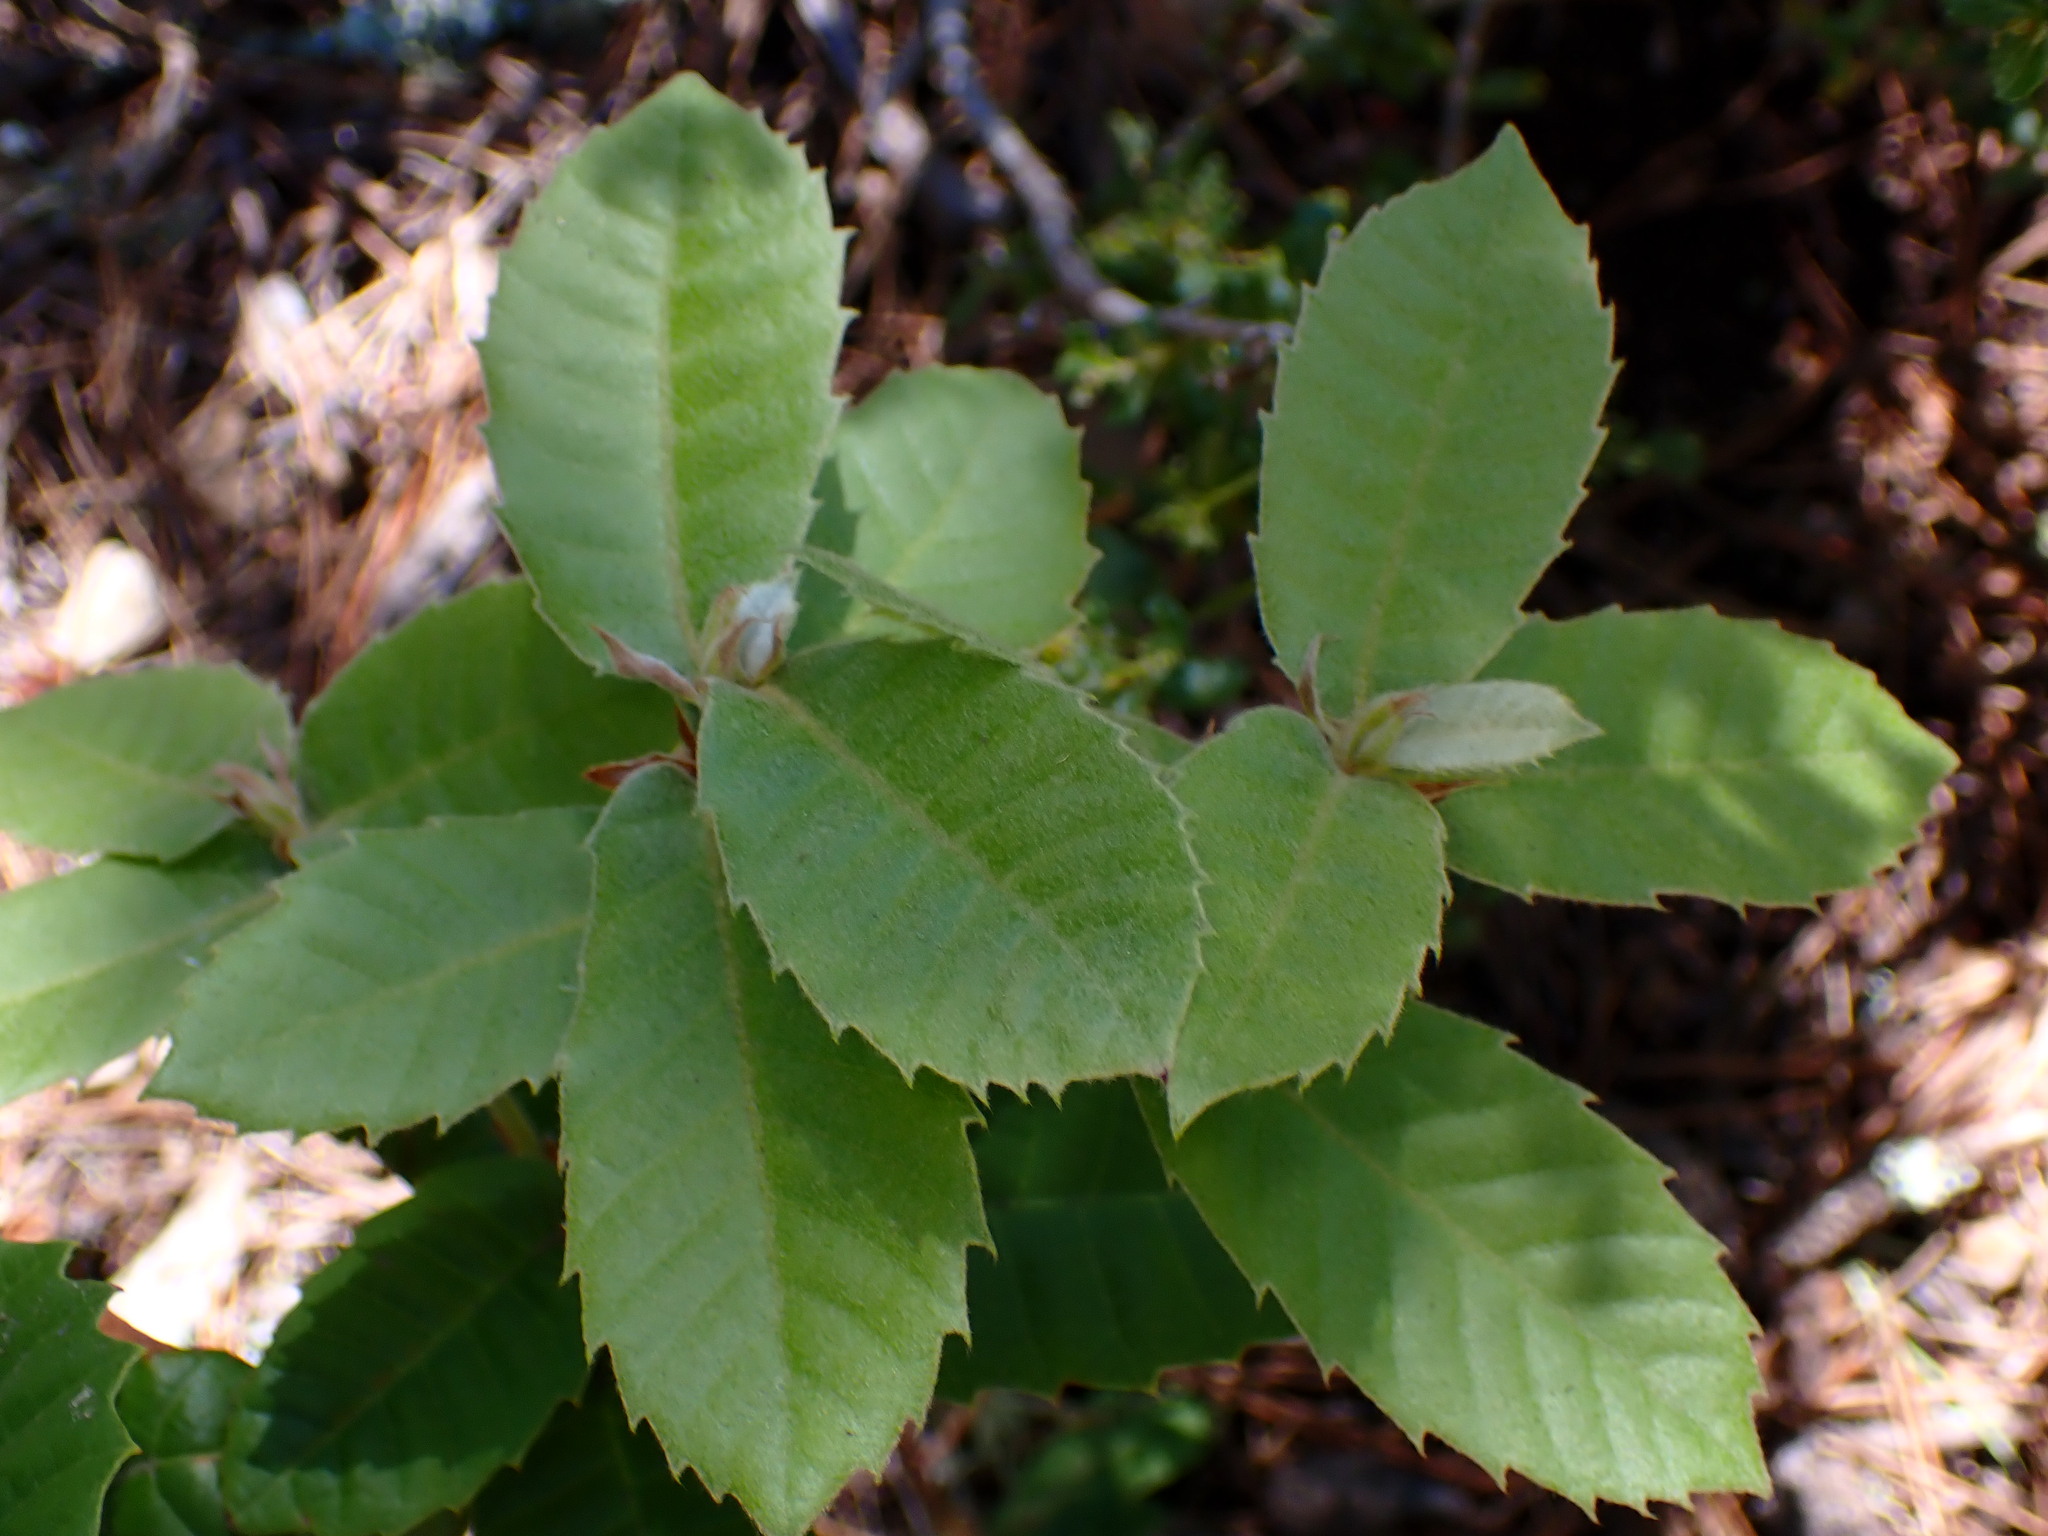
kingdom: Plantae
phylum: Tracheophyta
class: Magnoliopsida
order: Fagales
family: Fagaceae
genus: Notholithocarpus
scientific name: Notholithocarpus densiflorus
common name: Tan bark oak
